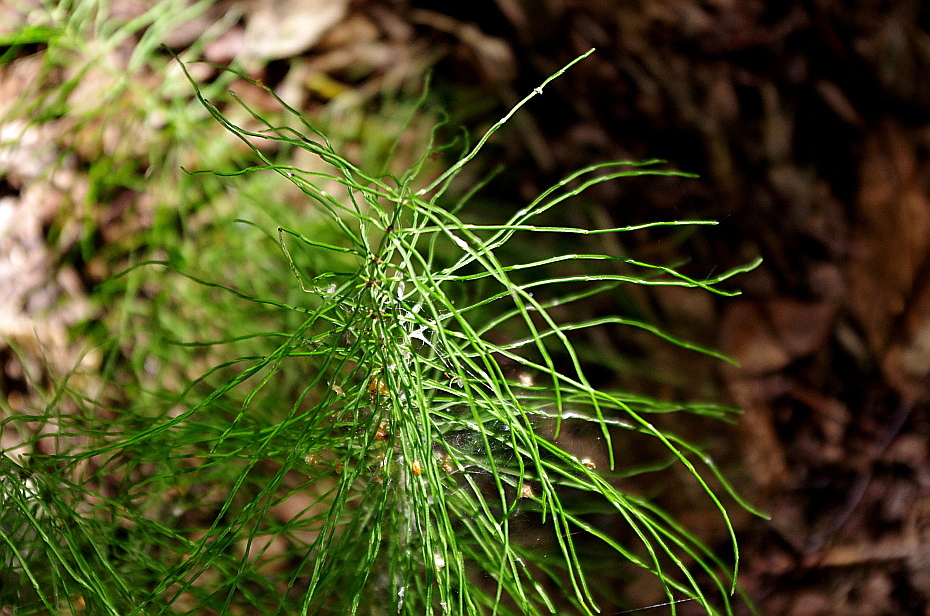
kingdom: Plantae
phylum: Tracheophyta
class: Polypodiopsida
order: Equisetales
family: Equisetaceae
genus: Equisetum
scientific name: Equisetum pratense
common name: Meadow horsetail
